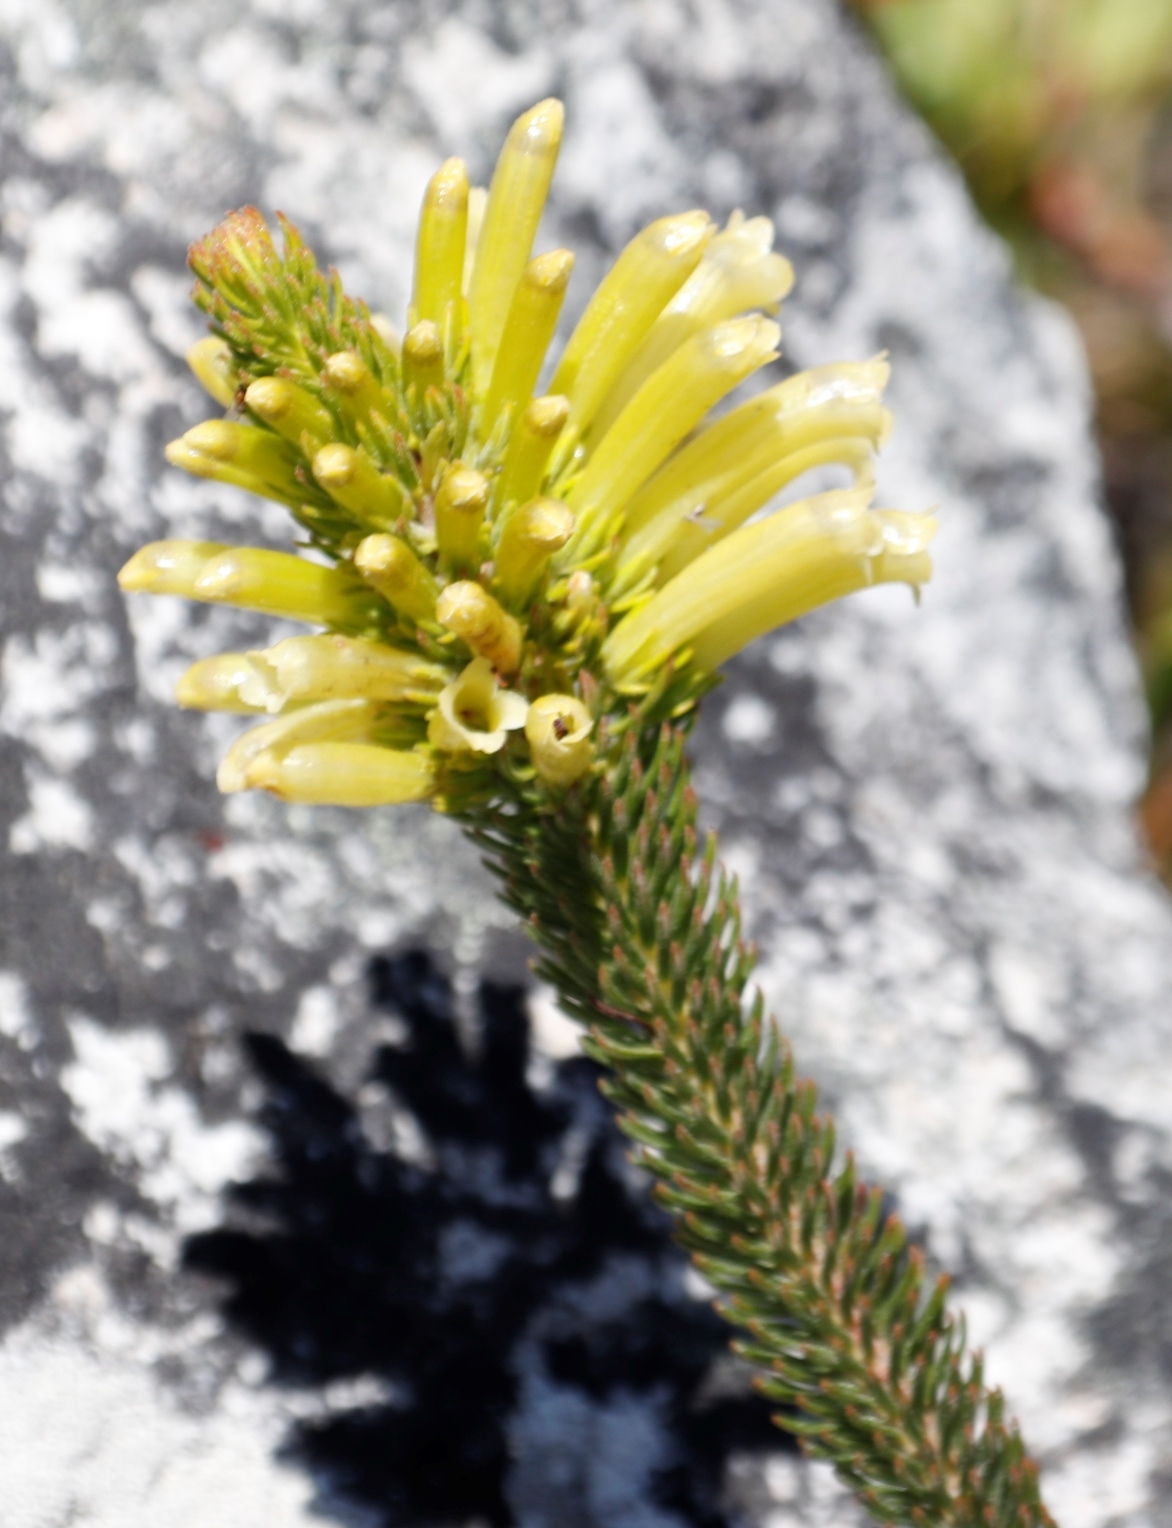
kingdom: Plantae
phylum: Tracheophyta
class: Magnoliopsida
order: Ericales
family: Ericaceae
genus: Erica
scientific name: Erica pinea
